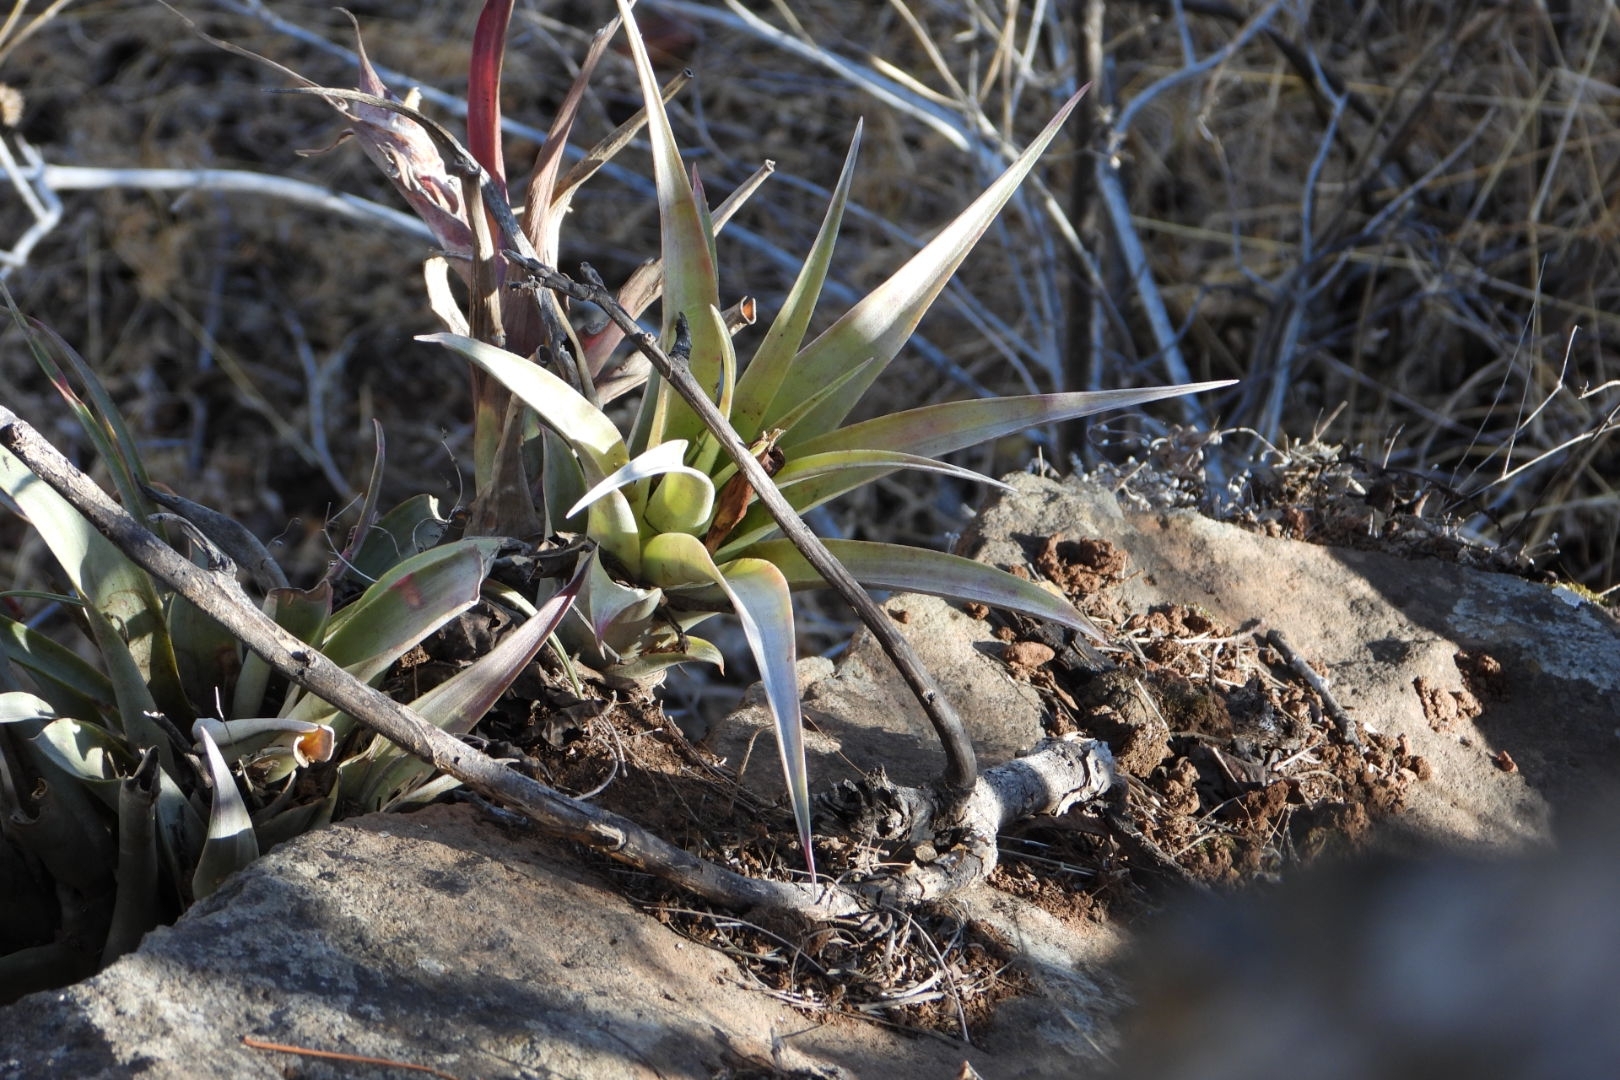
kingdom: Plantae
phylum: Tracheophyta
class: Liliopsida
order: Poales
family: Bromeliaceae
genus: Tillandsia
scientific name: Tillandsia capitata
